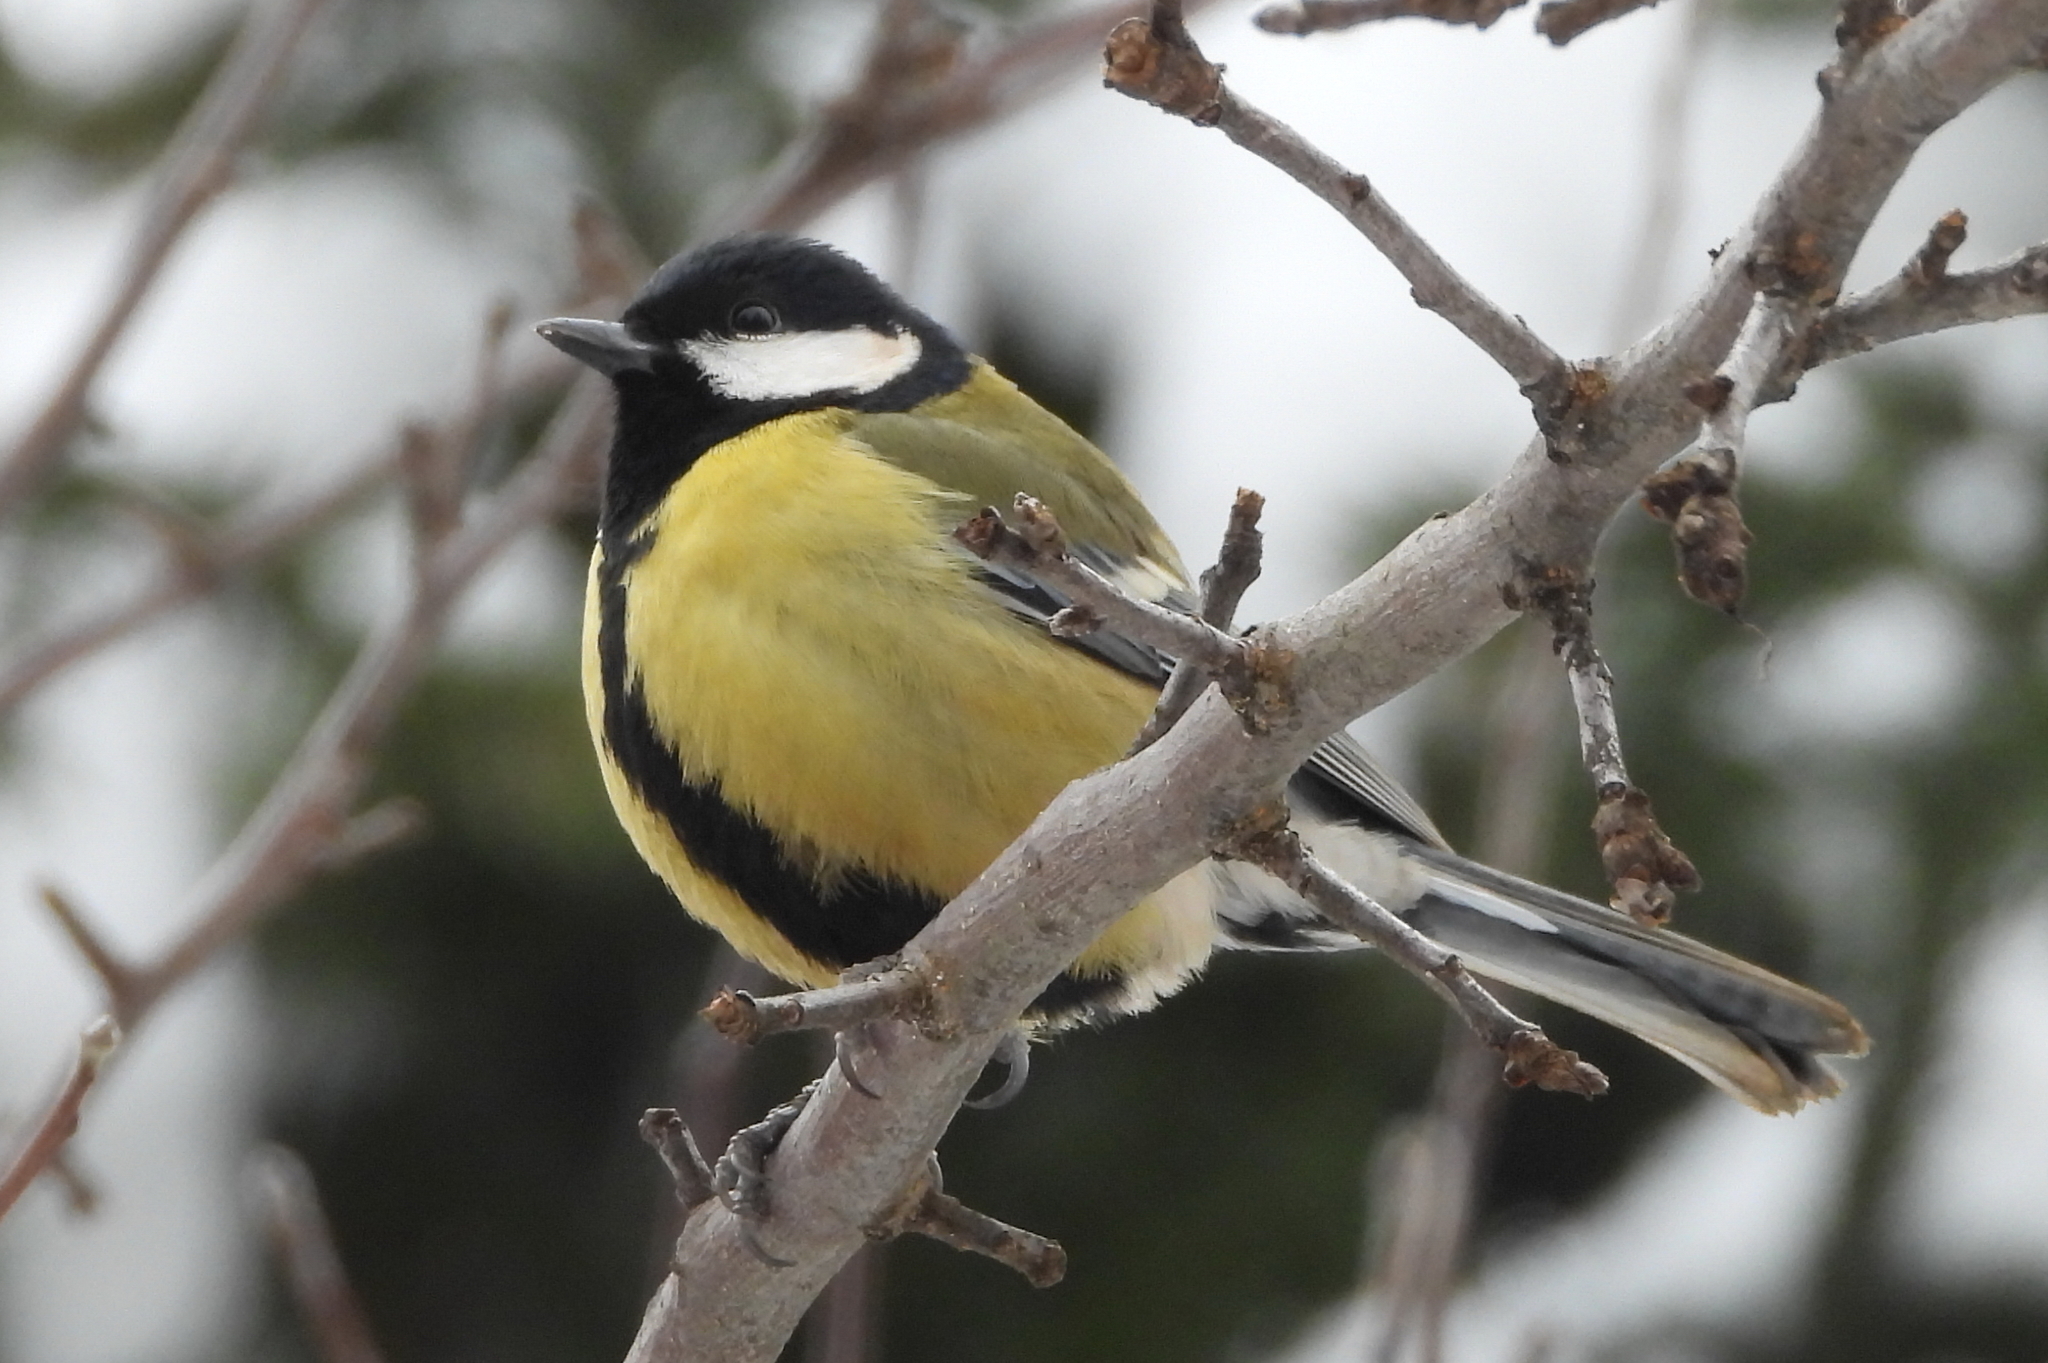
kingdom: Animalia
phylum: Chordata
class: Aves
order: Passeriformes
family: Paridae
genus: Parus
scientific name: Parus major
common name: Great tit
